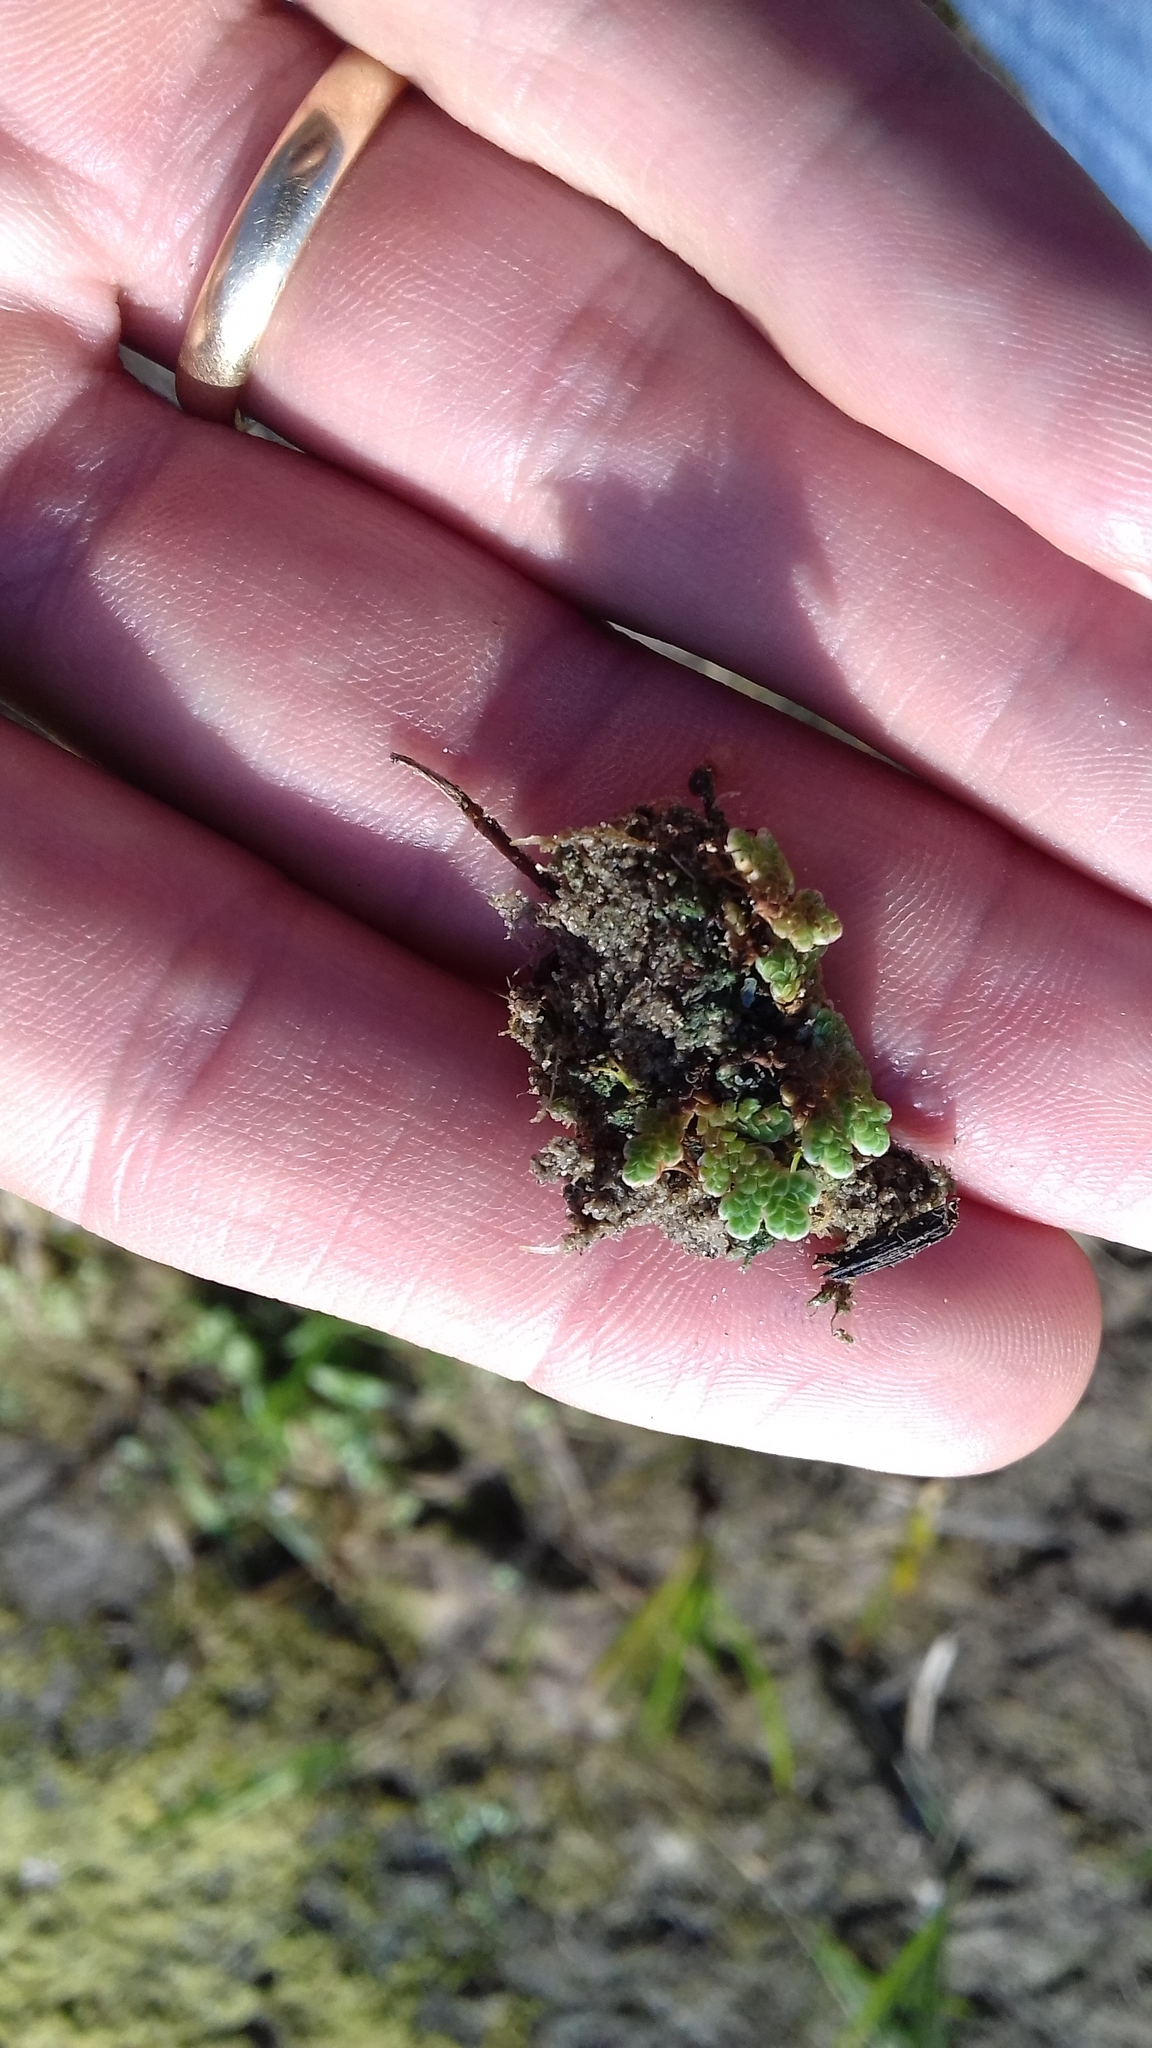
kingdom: Plantae
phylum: Tracheophyta
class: Polypodiopsida
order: Salviniales
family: Salviniaceae
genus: Azolla
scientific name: Azolla filiculoides
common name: Water fern
